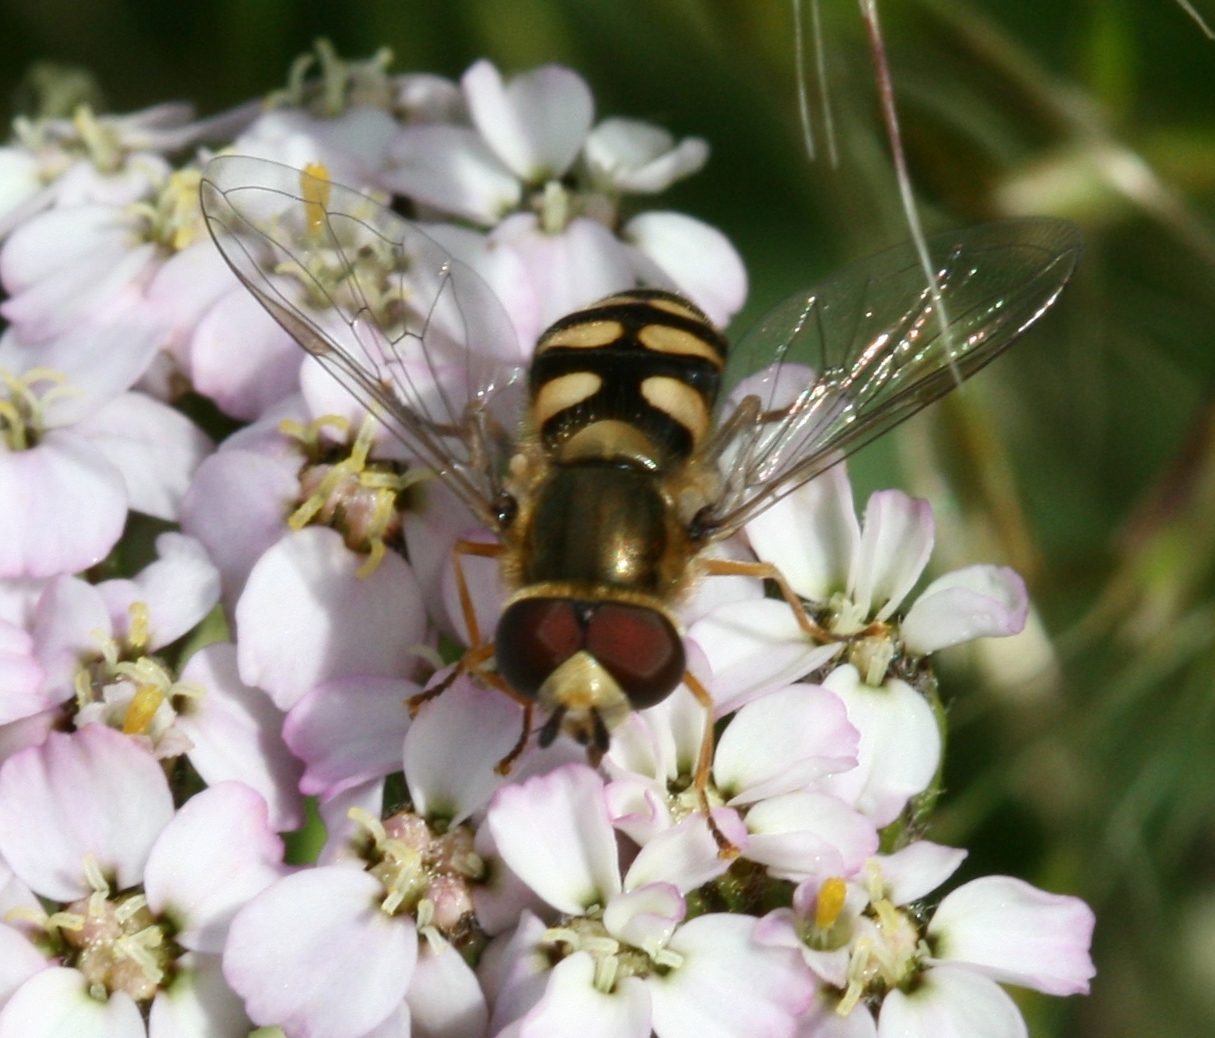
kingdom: Animalia
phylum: Arthropoda
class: Insecta
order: Diptera
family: Syrphidae
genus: Eupeodes
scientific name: Eupeodes
